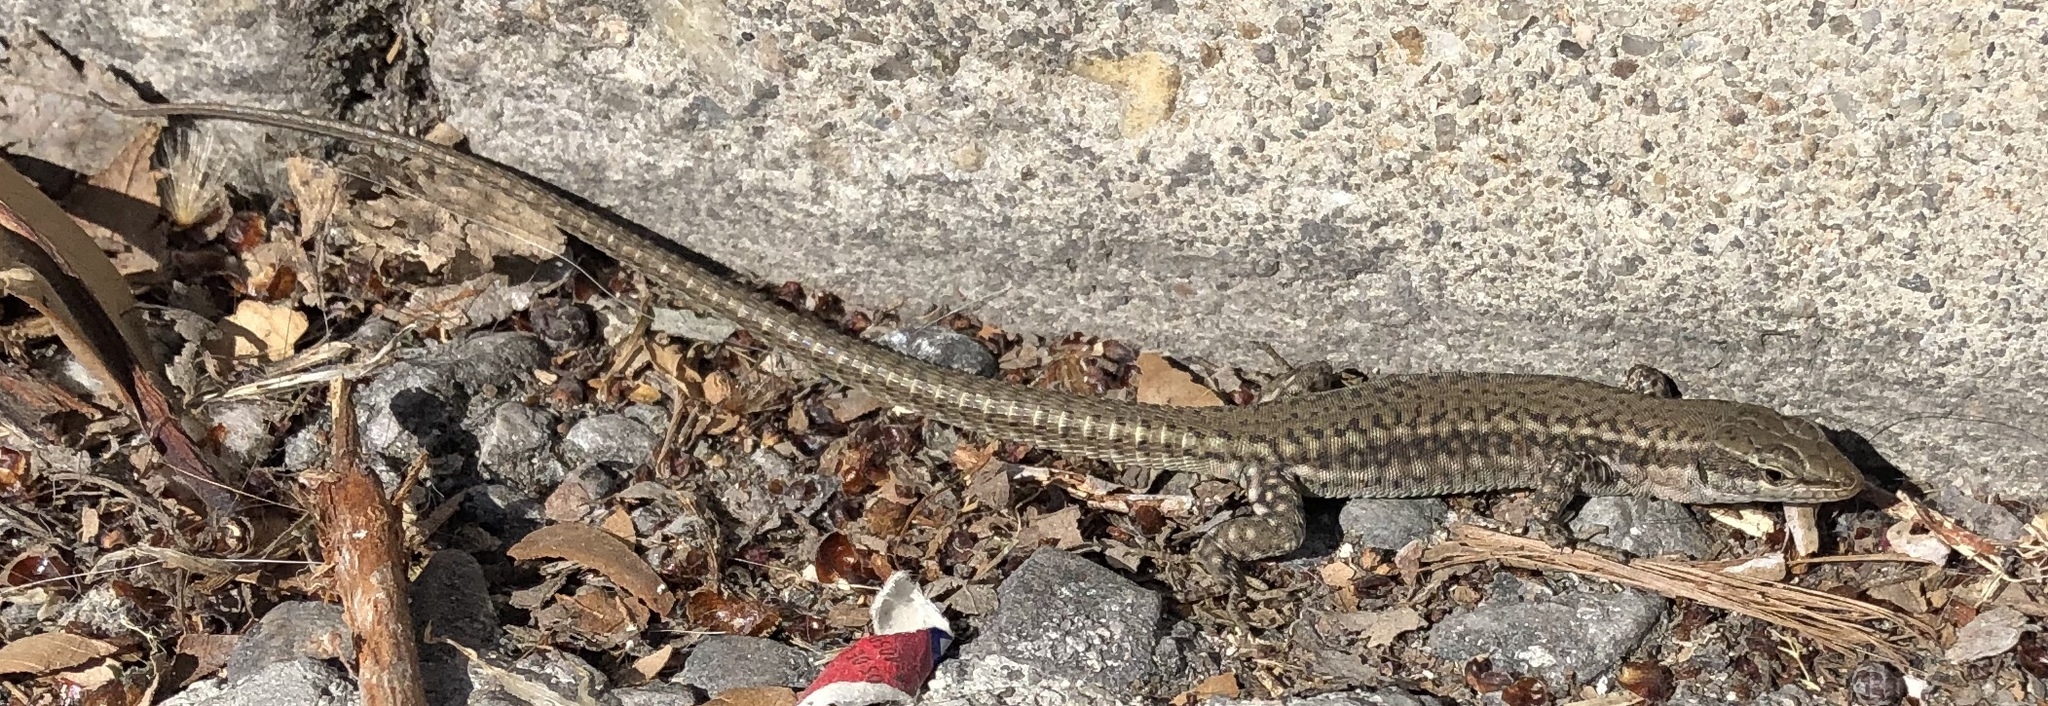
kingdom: Animalia
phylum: Chordata
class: Squamata
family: Lacertidae
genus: Podarcis
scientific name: Podarcis virescens
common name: Geniez’s wall lizard
